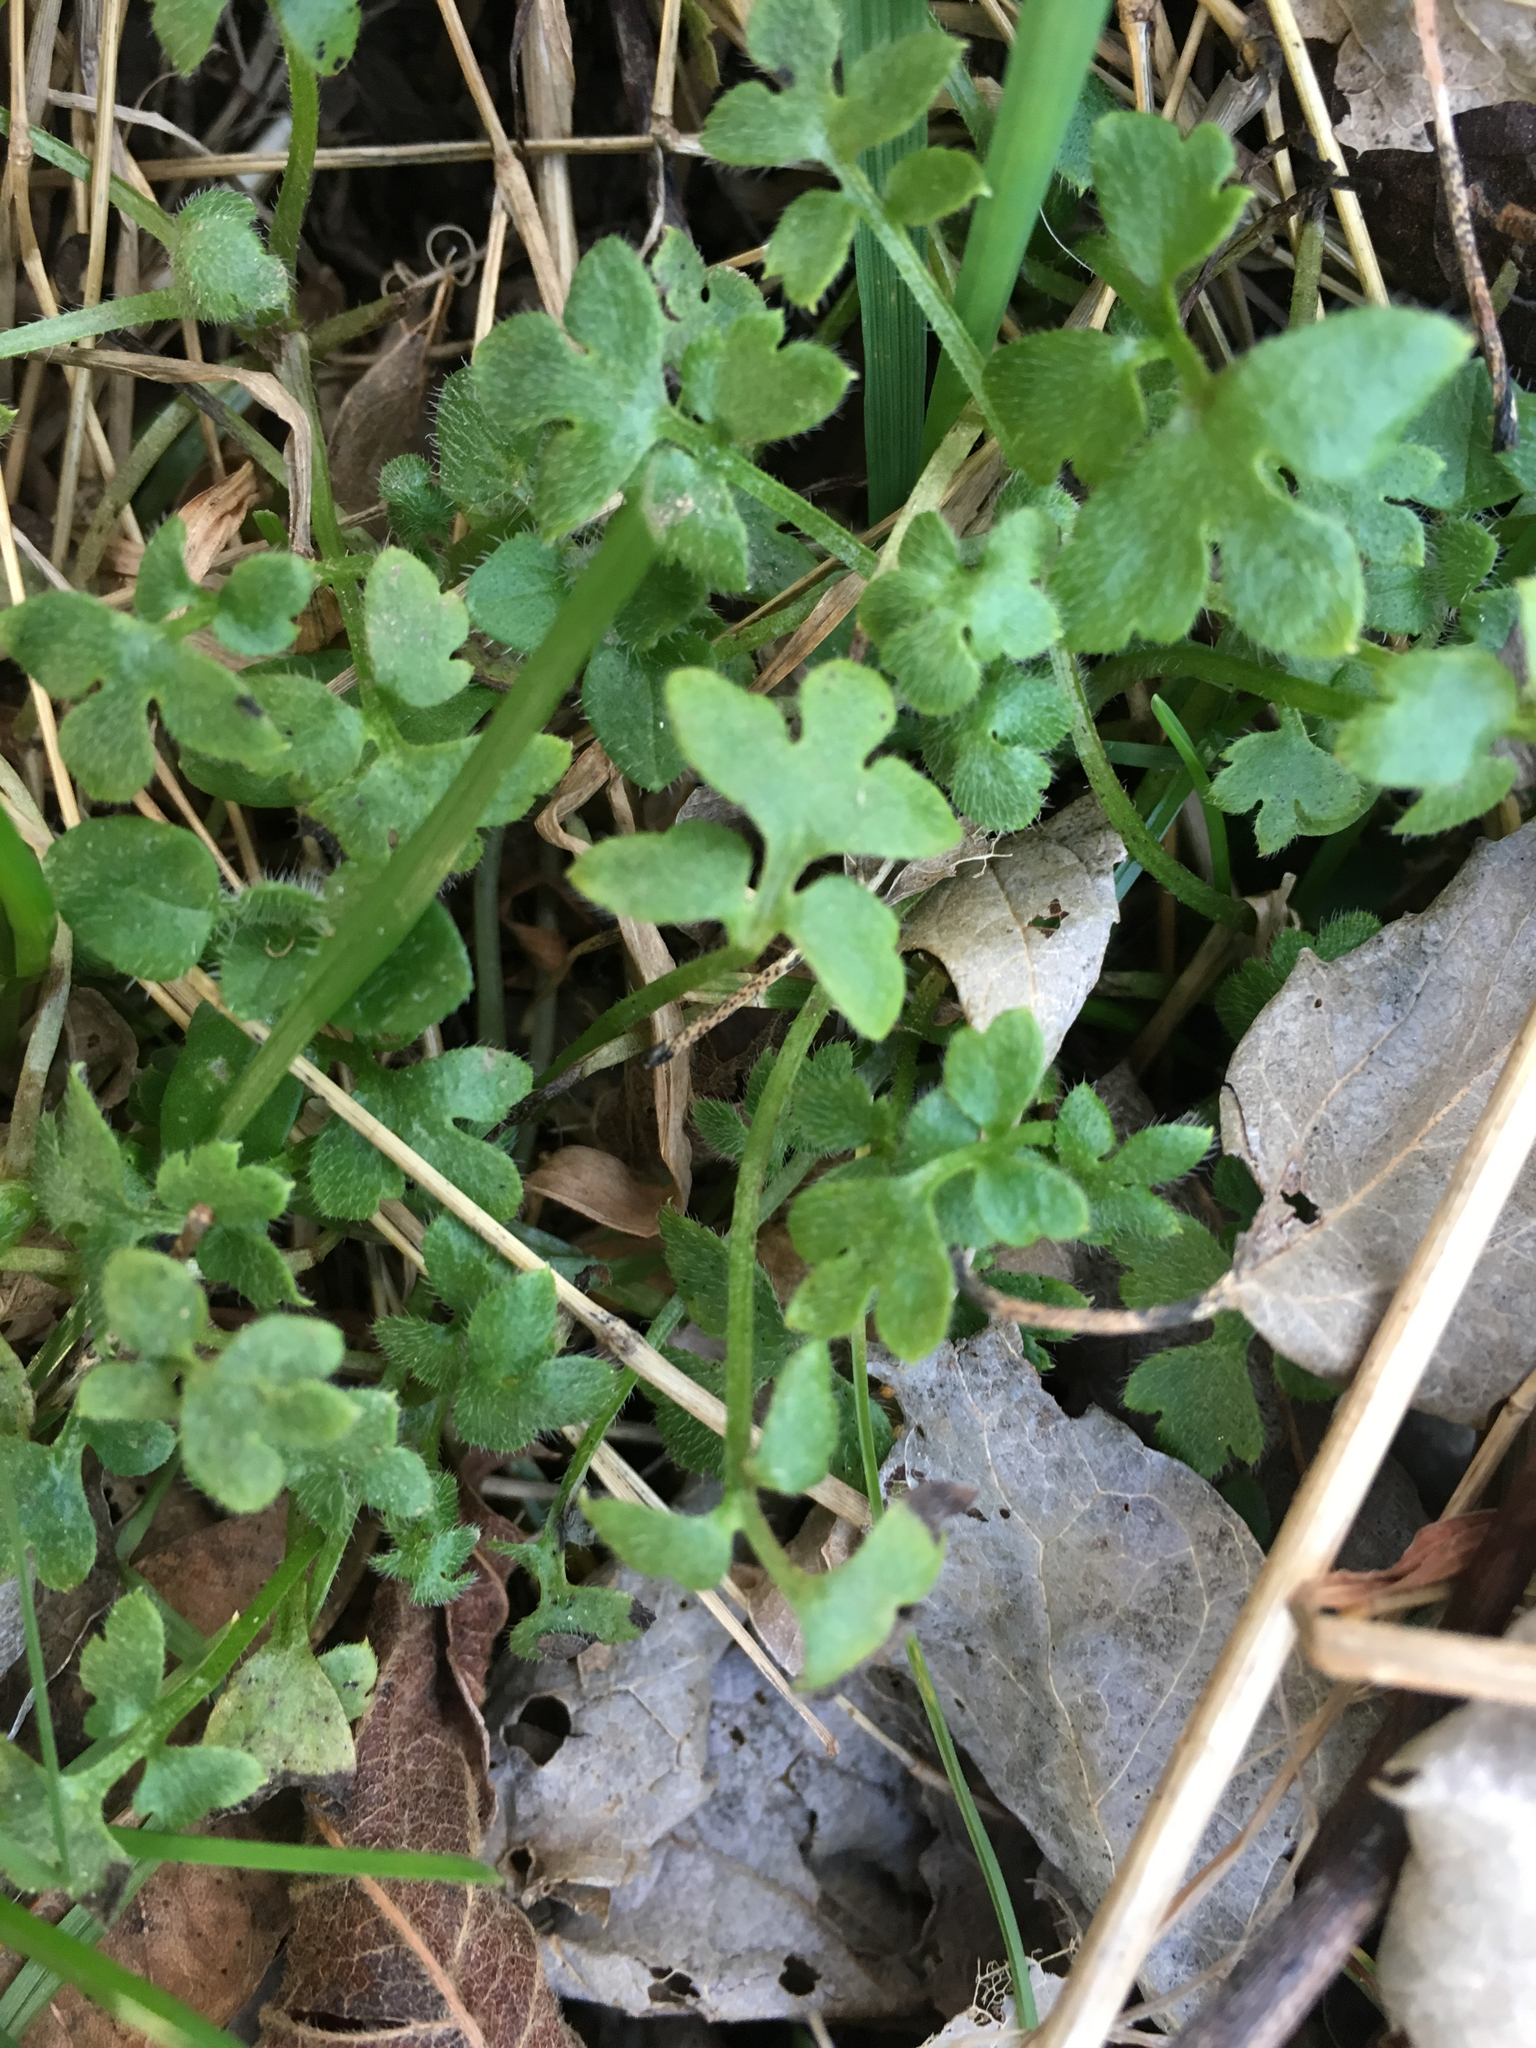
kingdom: Plantae
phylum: Tracheophyta
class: Magnoliopsida
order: Boraginales
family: Hydrophyllaceae
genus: Nemophila
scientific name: Nemophila aphylla
